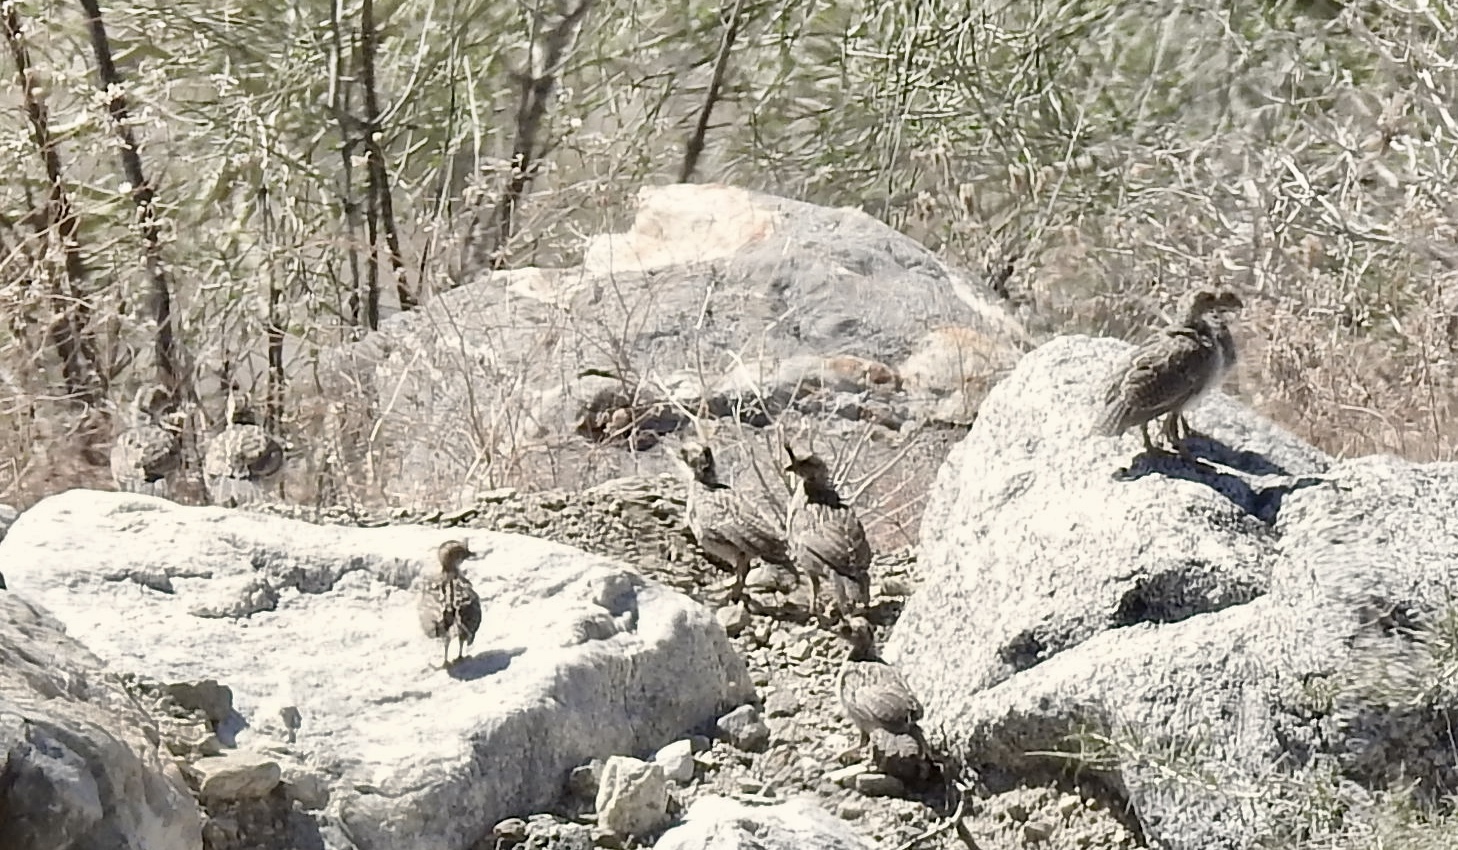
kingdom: Animalia
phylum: Chordata
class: Aves
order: Galliformes
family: Odontophoridae
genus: Callipepla
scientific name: Callipepla gambelii
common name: Gambel's quail
